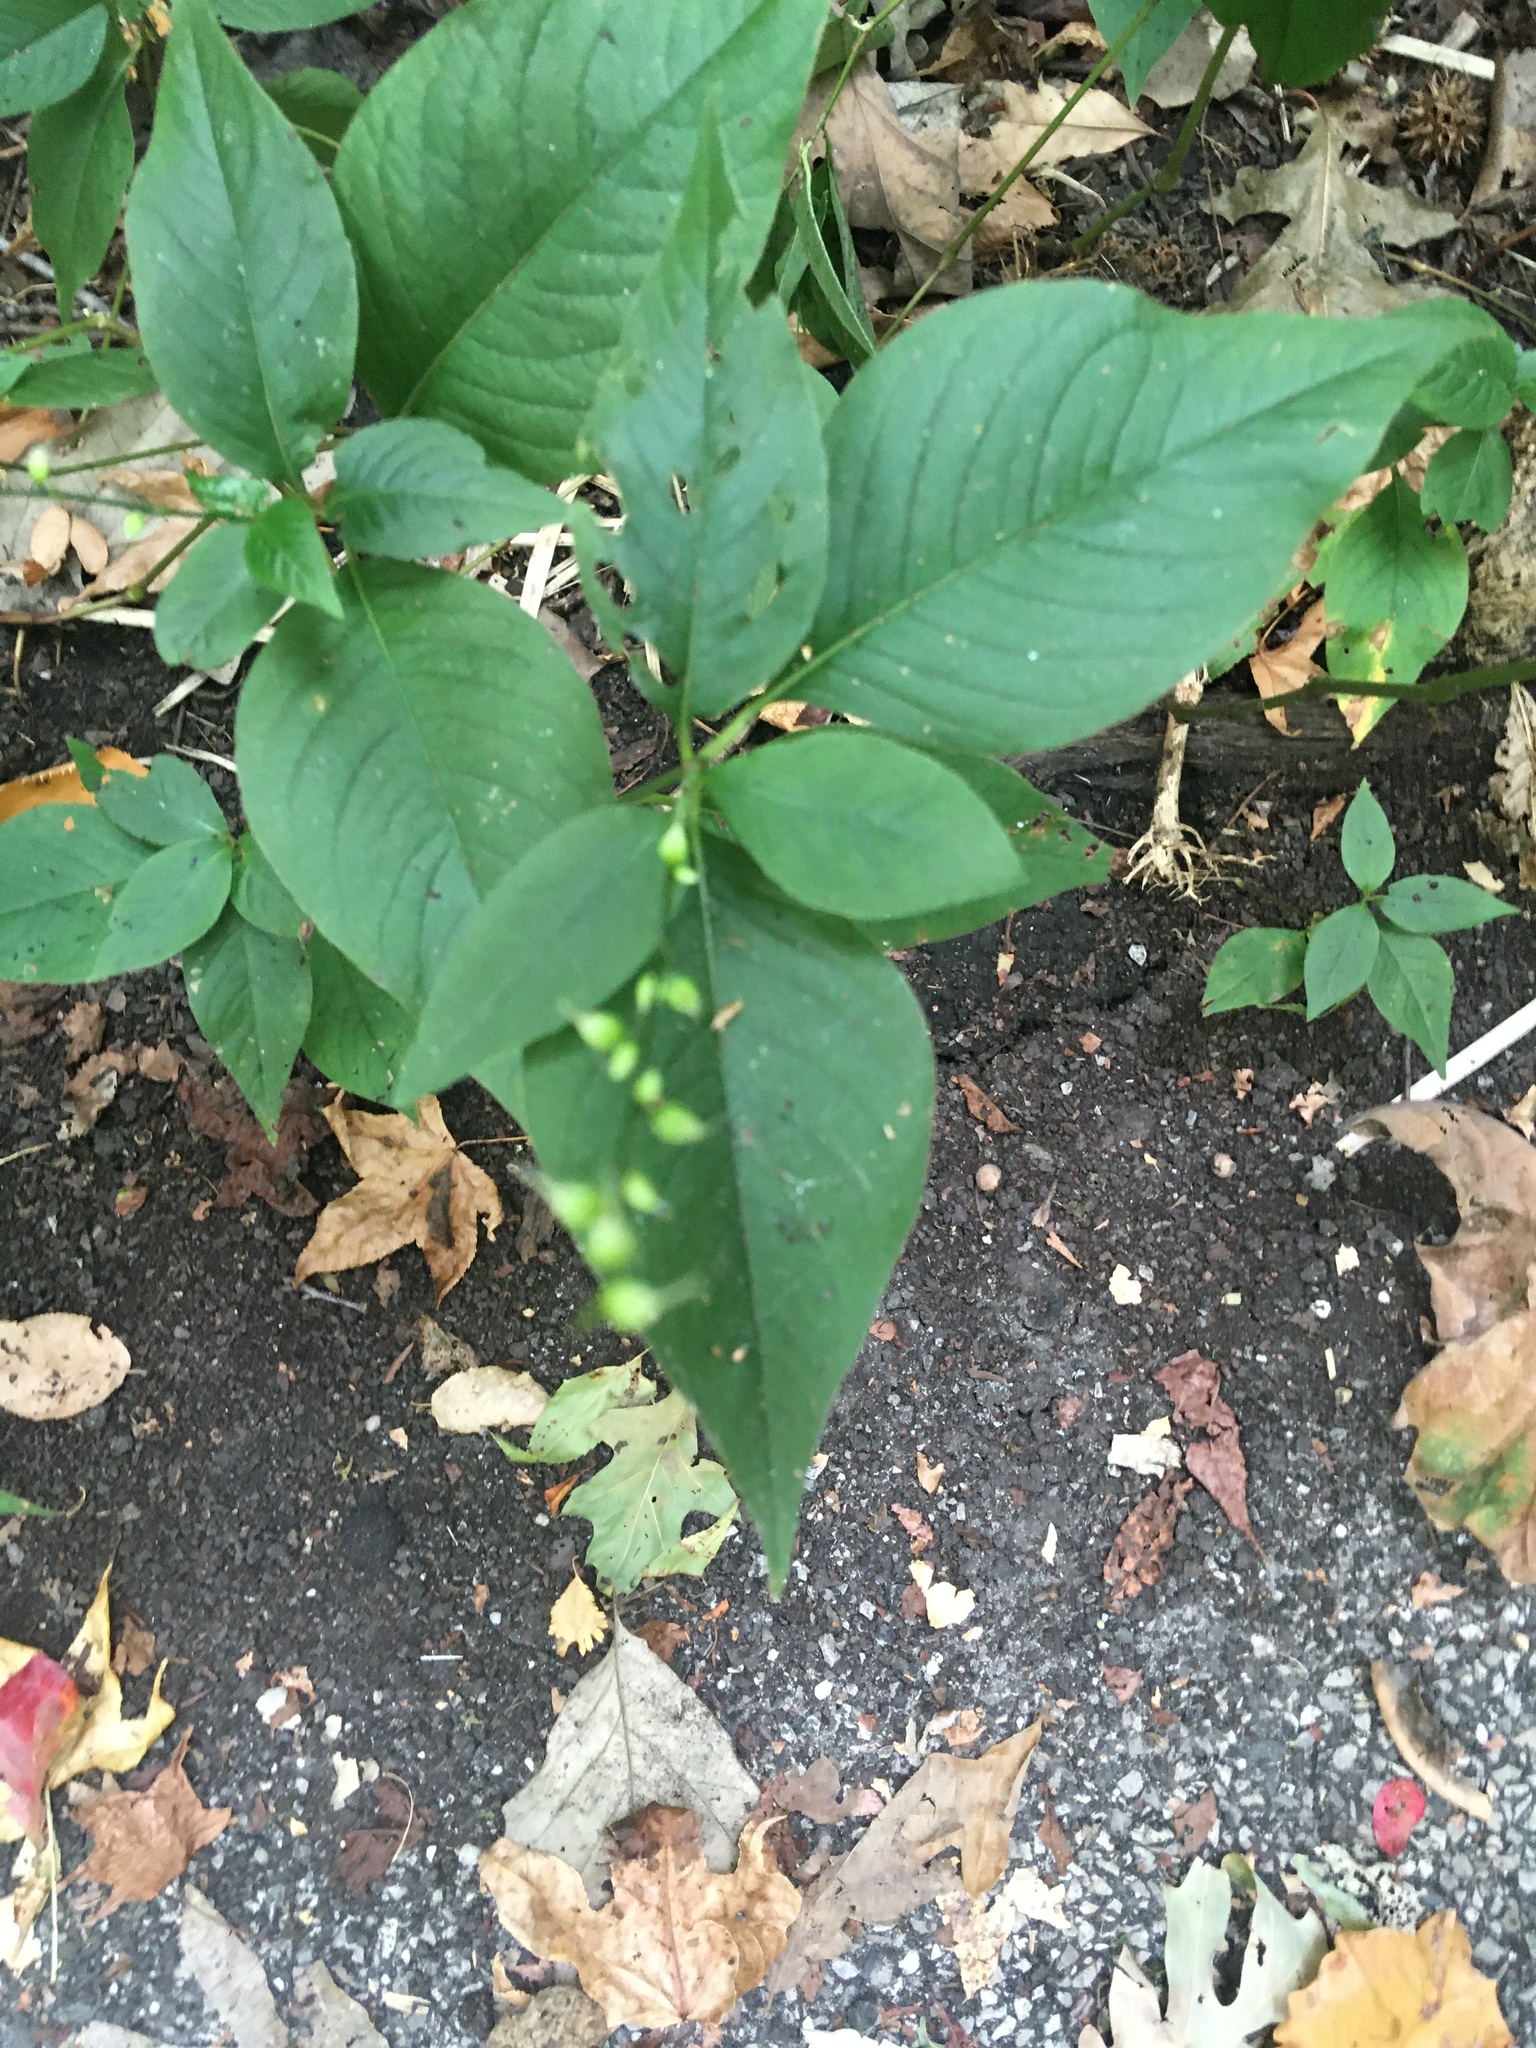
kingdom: Plantae
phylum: Tracheophyta
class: Magnoliopsida
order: Caryophyllales
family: Polygonaceae
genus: Persicaria
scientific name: Persicaria virginiana
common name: Jumpseed
